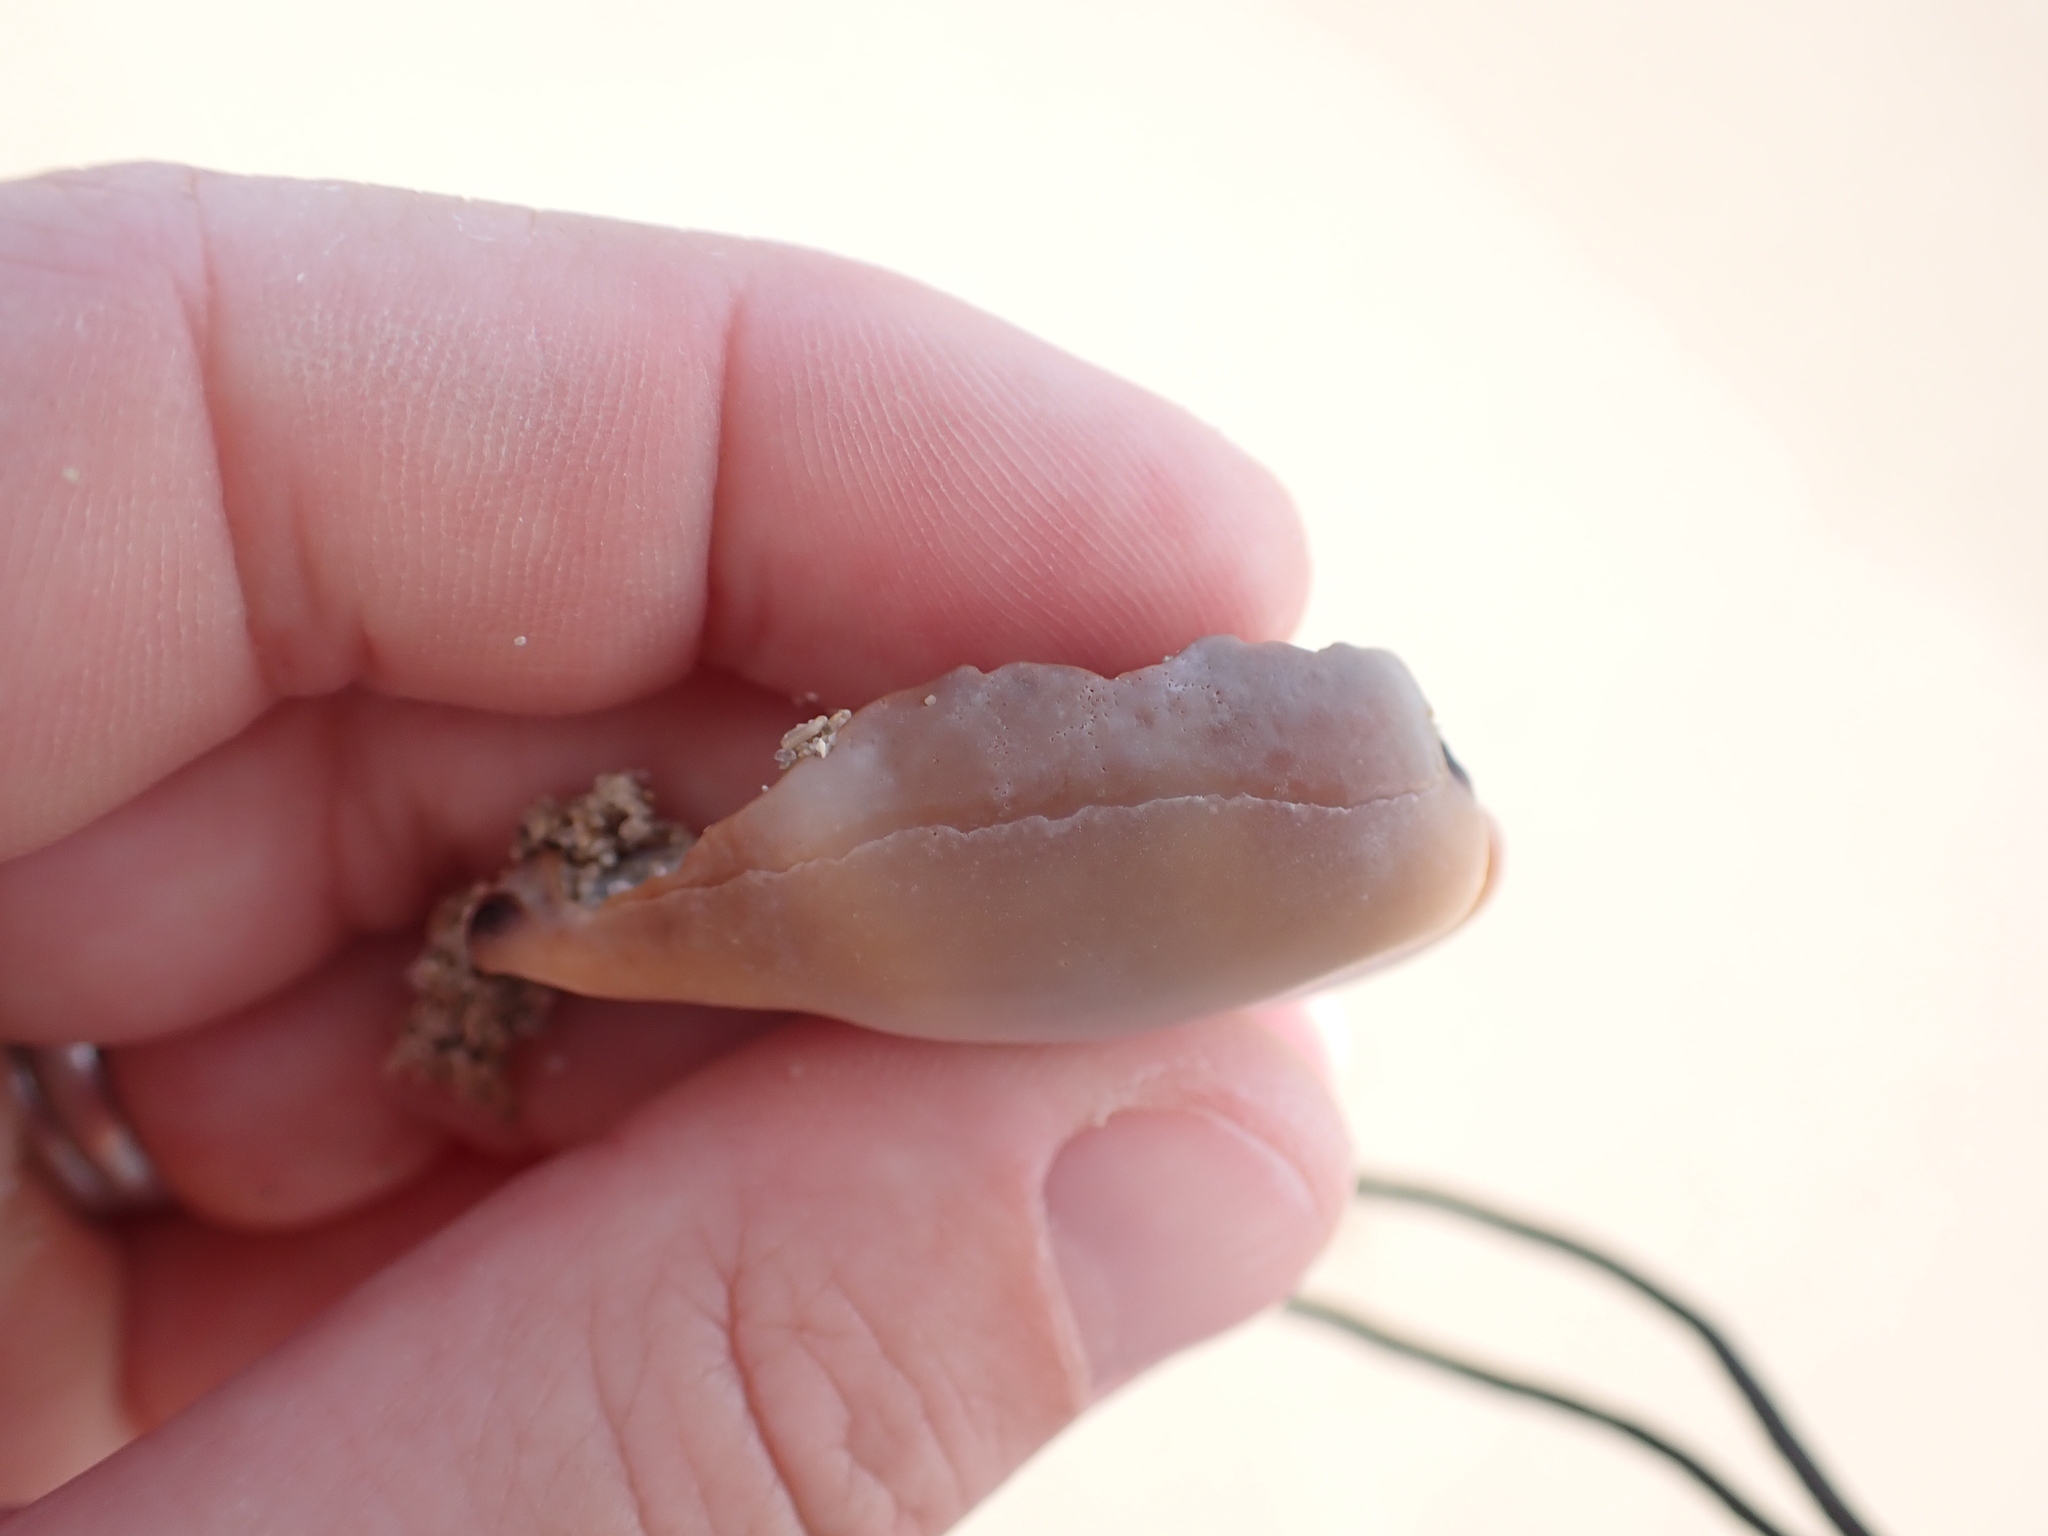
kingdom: Animalia
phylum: Mollusca
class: Gastropoda
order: Littorinimorpha
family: Cypraeidae
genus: Luria
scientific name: Luria lurida
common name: Brown cowry
